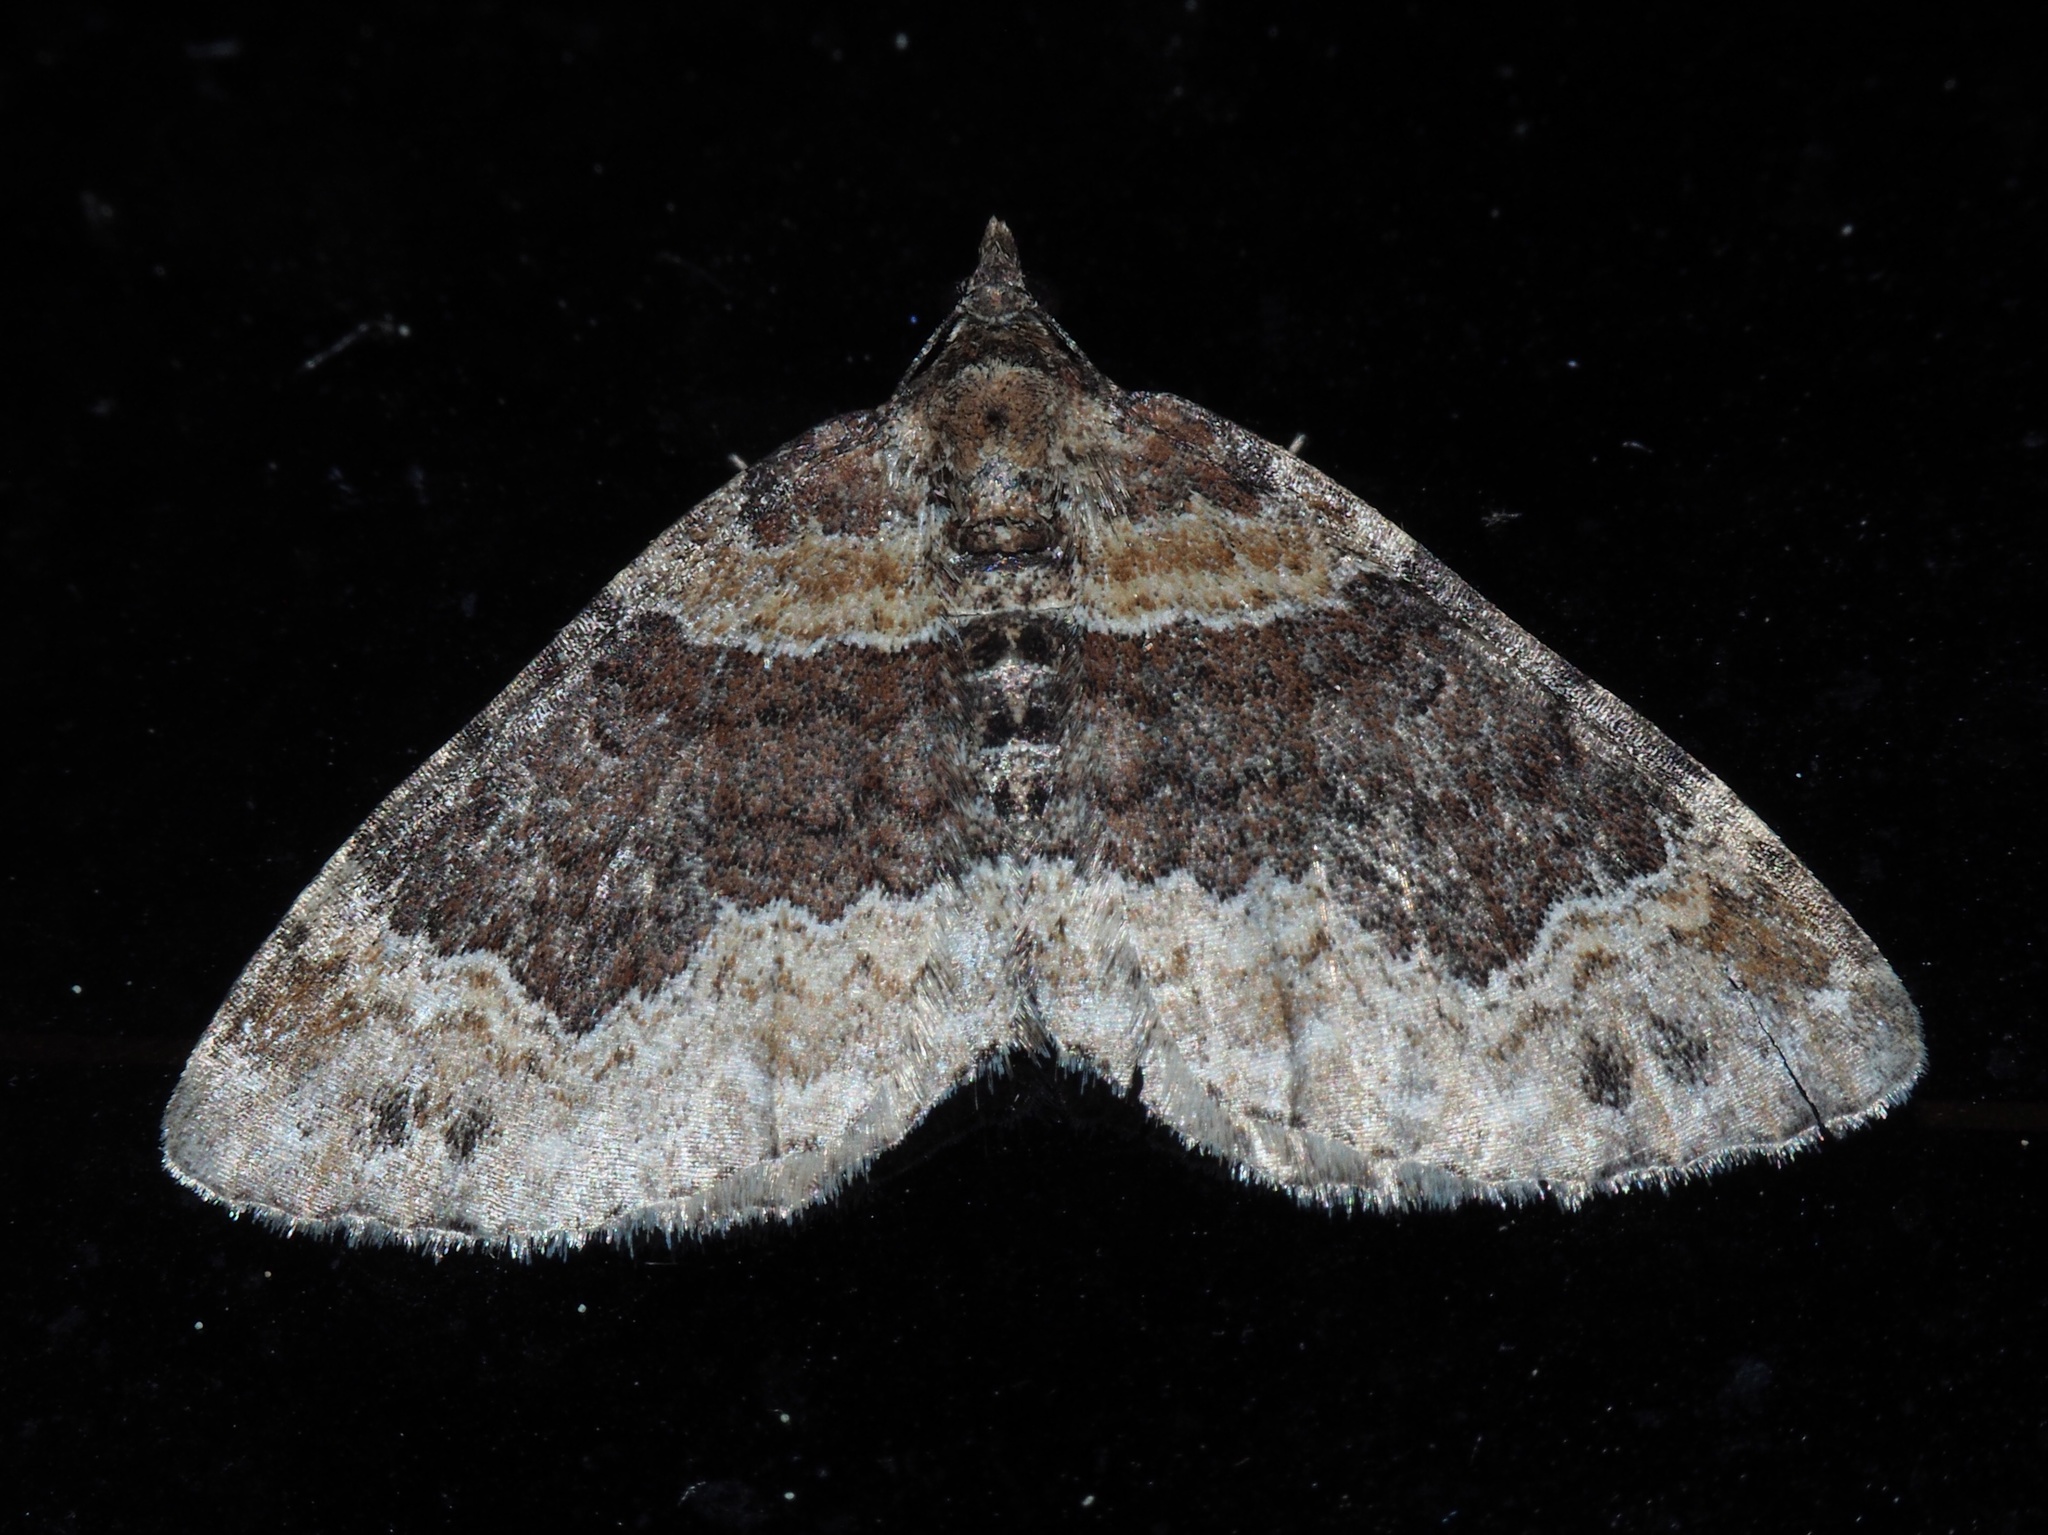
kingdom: Animalia
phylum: Arthropoda
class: Insecta
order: Lepidoptera
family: Geometridae
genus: Xanthorhoe
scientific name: Xanthorhoe ferrugata
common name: Dark-barred twin-spot carpet
